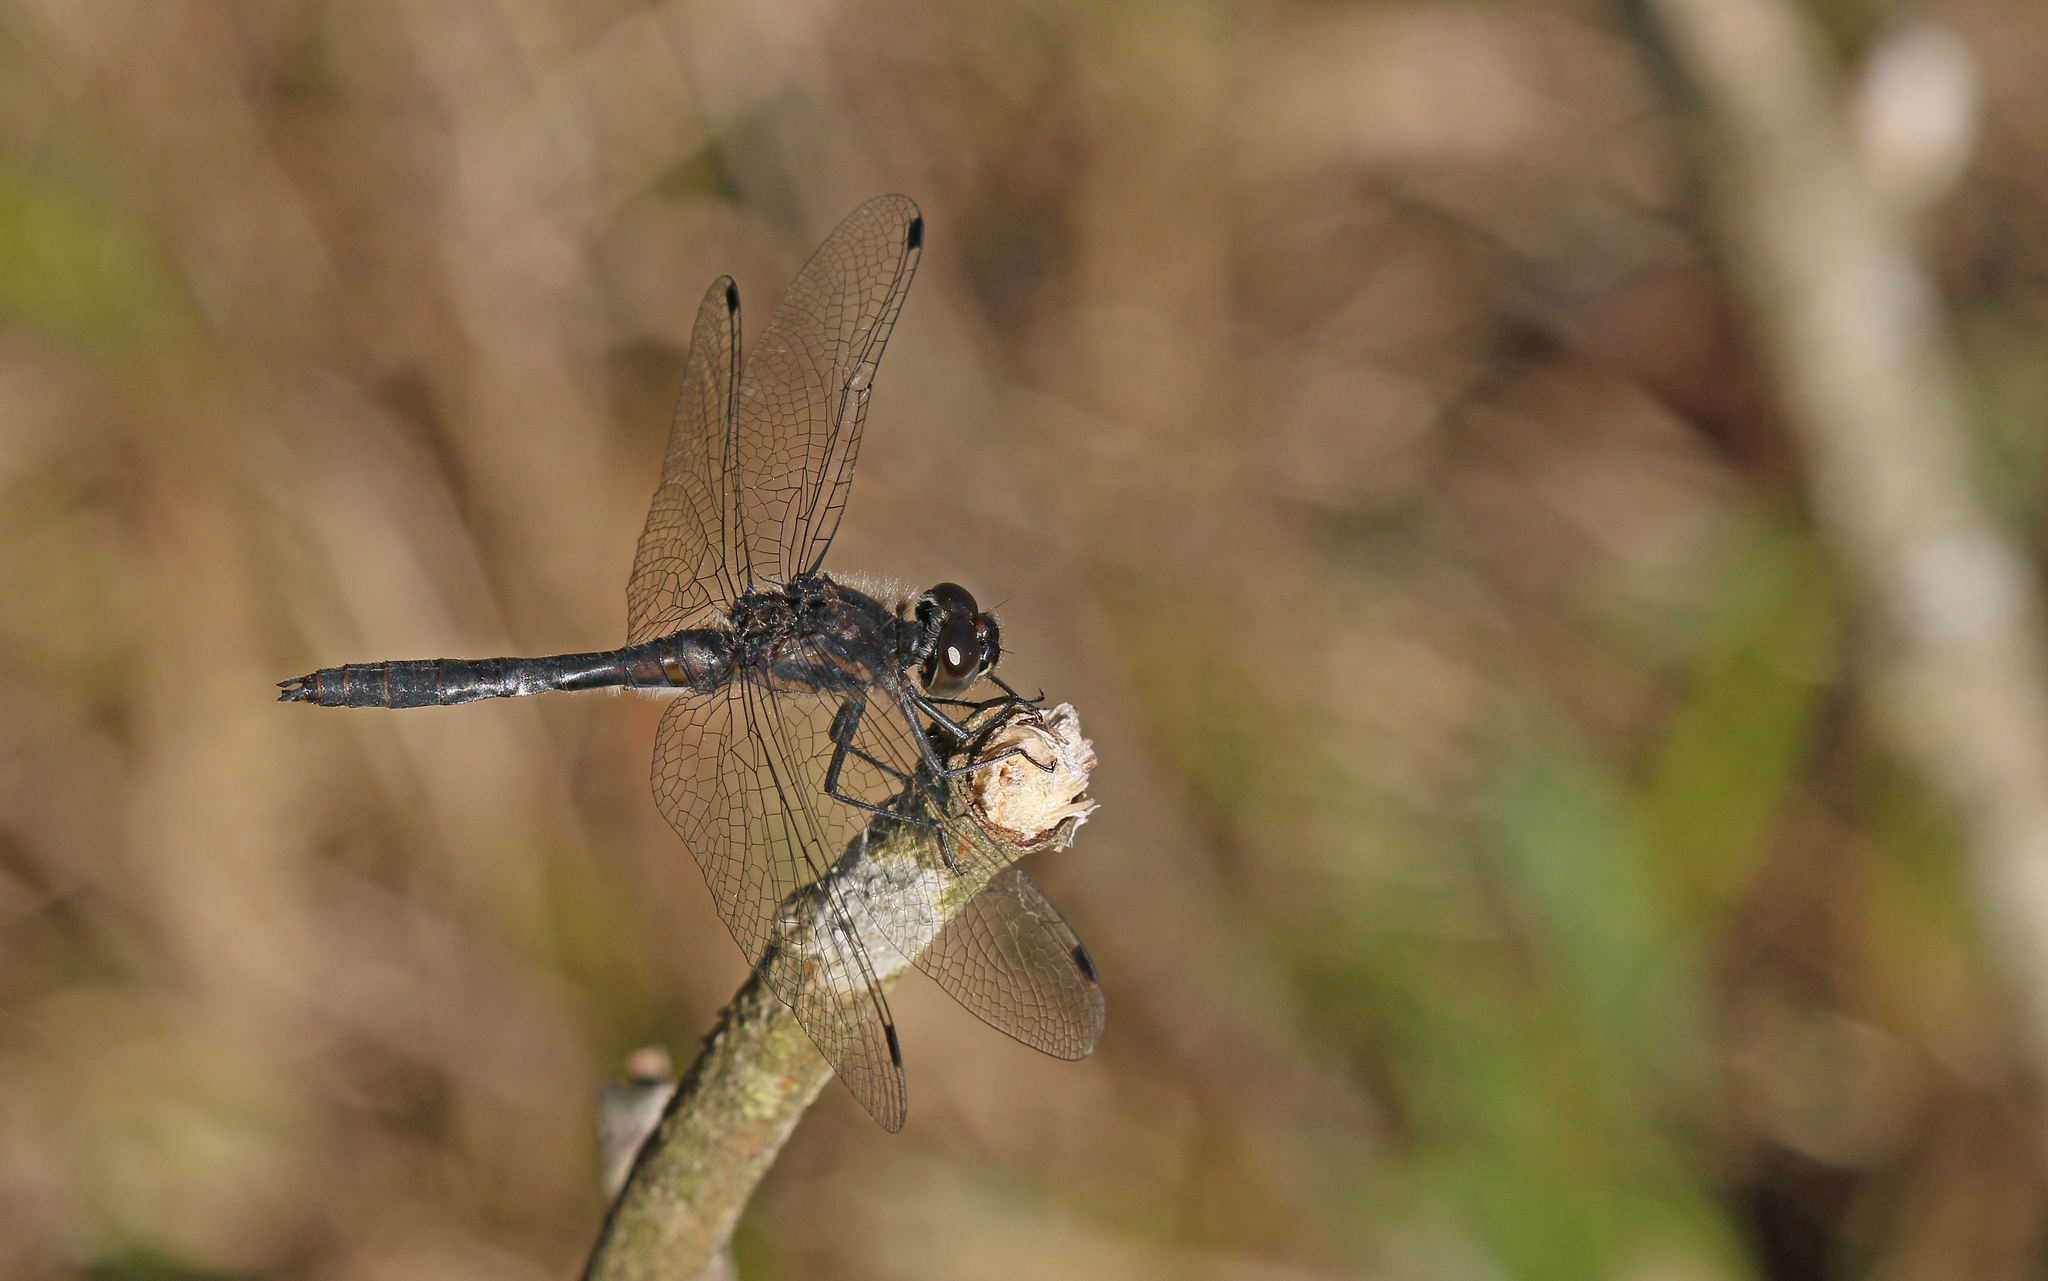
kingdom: Animalia
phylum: Arthropoda
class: Insecta
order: Odonata
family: Libellulidae
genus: Sympetrum
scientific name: Sympetrum danae
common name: Black darter
